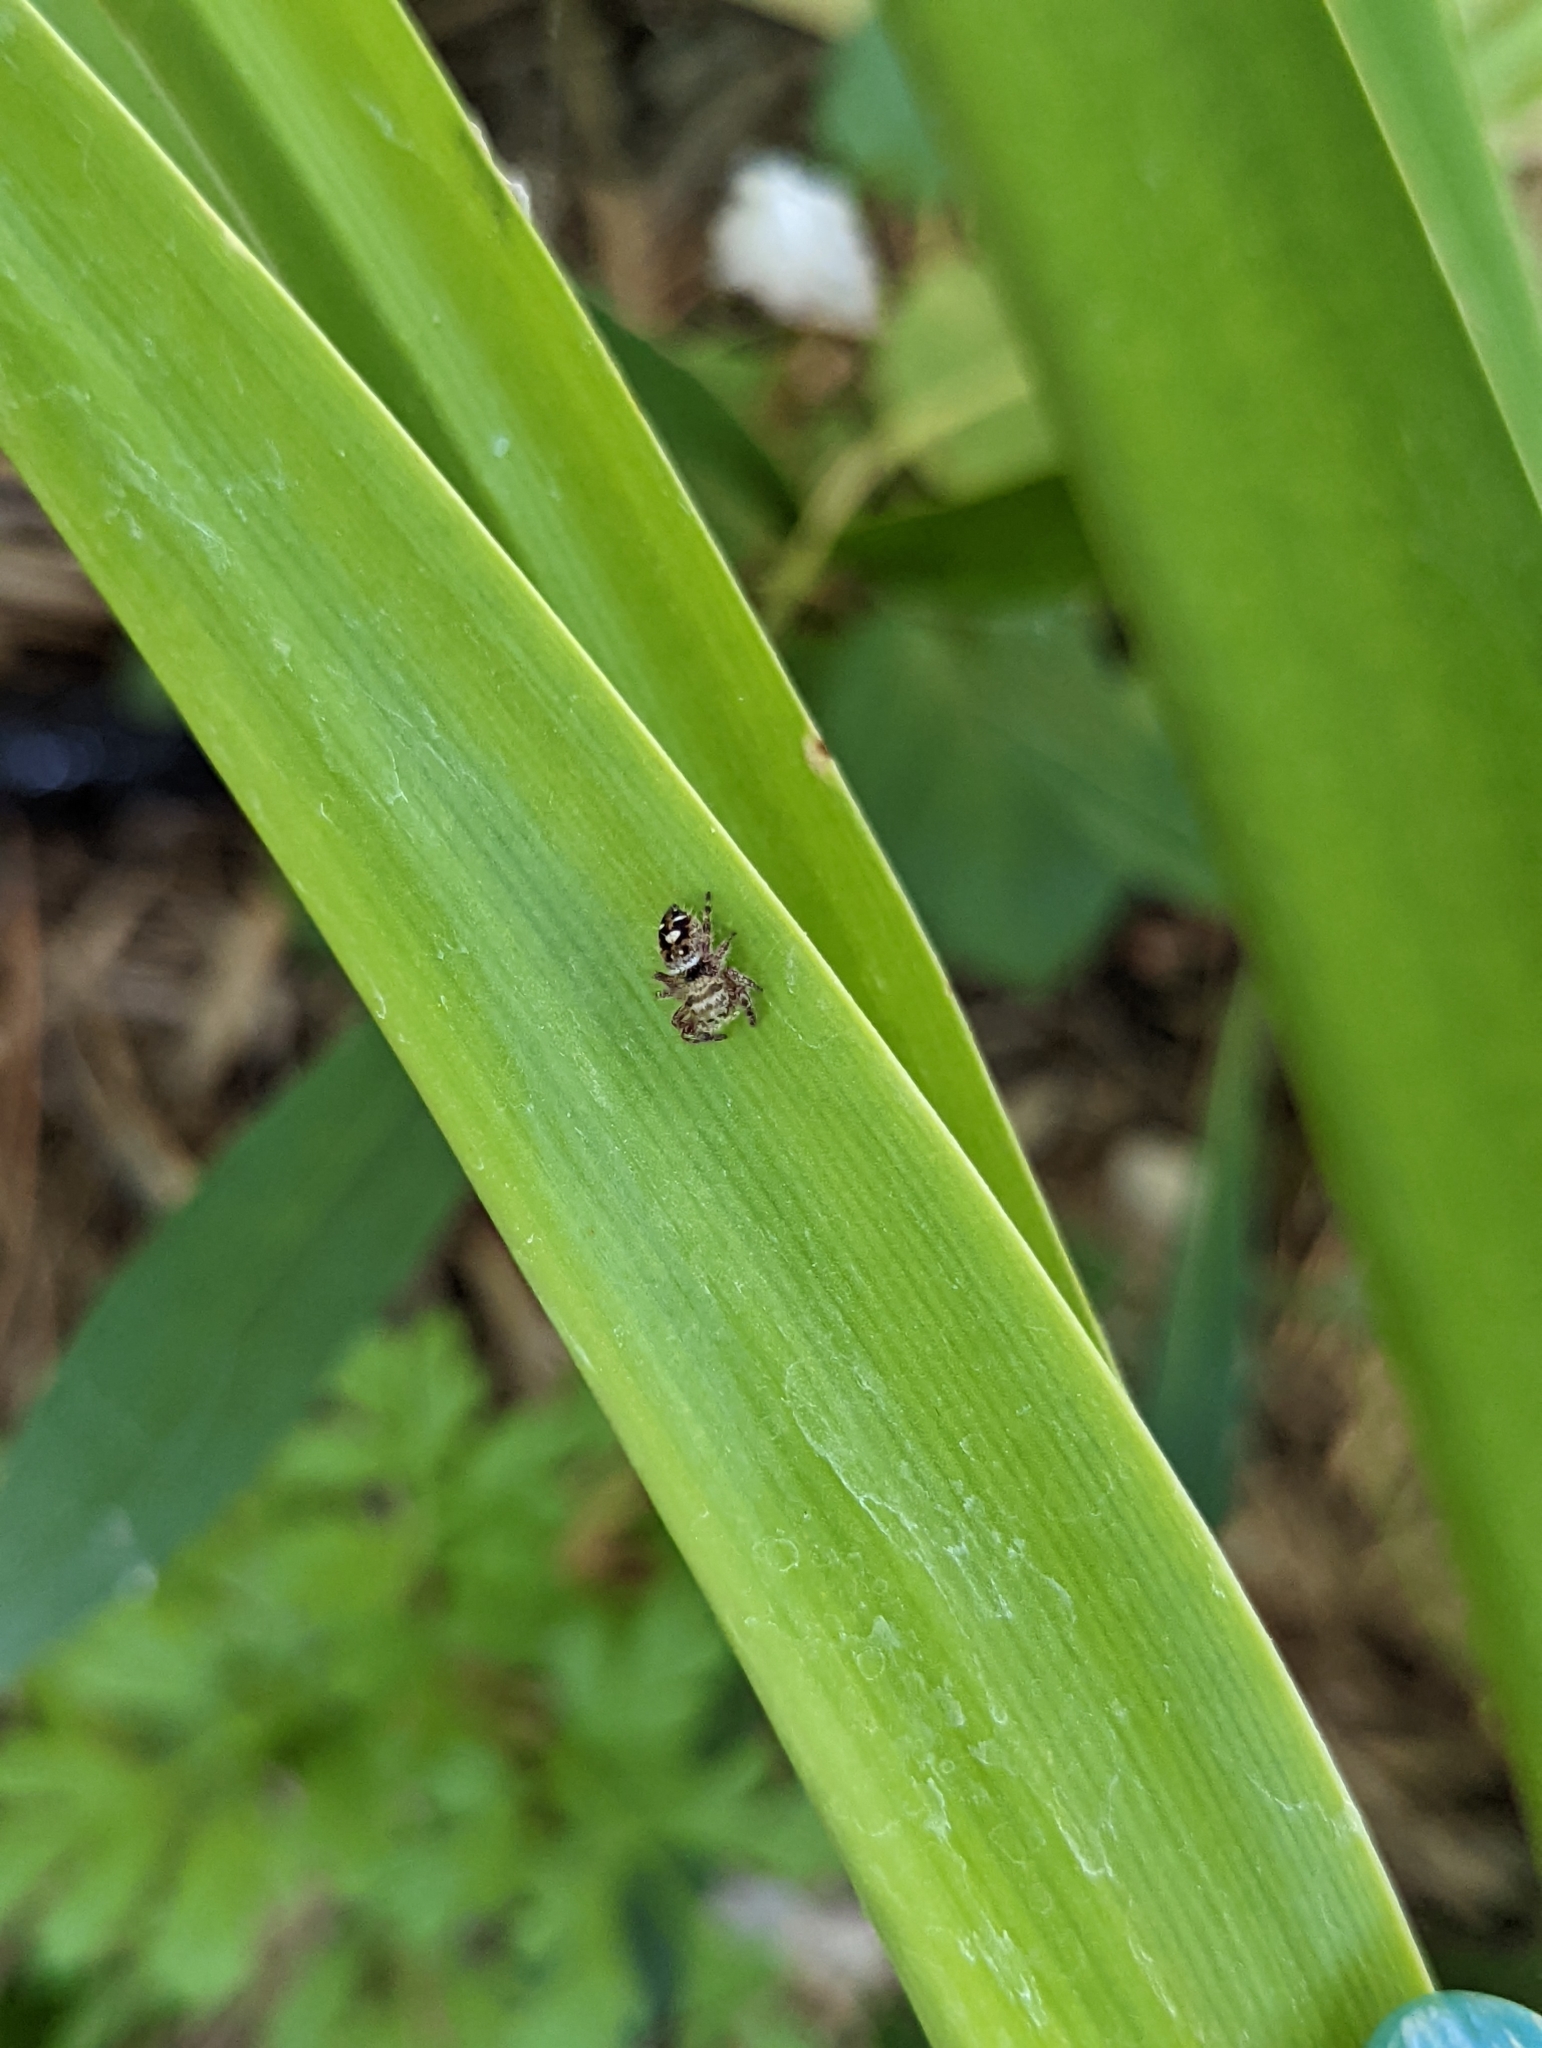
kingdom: Animalia
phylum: Arthropoda
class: Arachnida
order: Araneae
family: Salticidae
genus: Phidippus
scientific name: Phidippus audax
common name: Bold jumper
